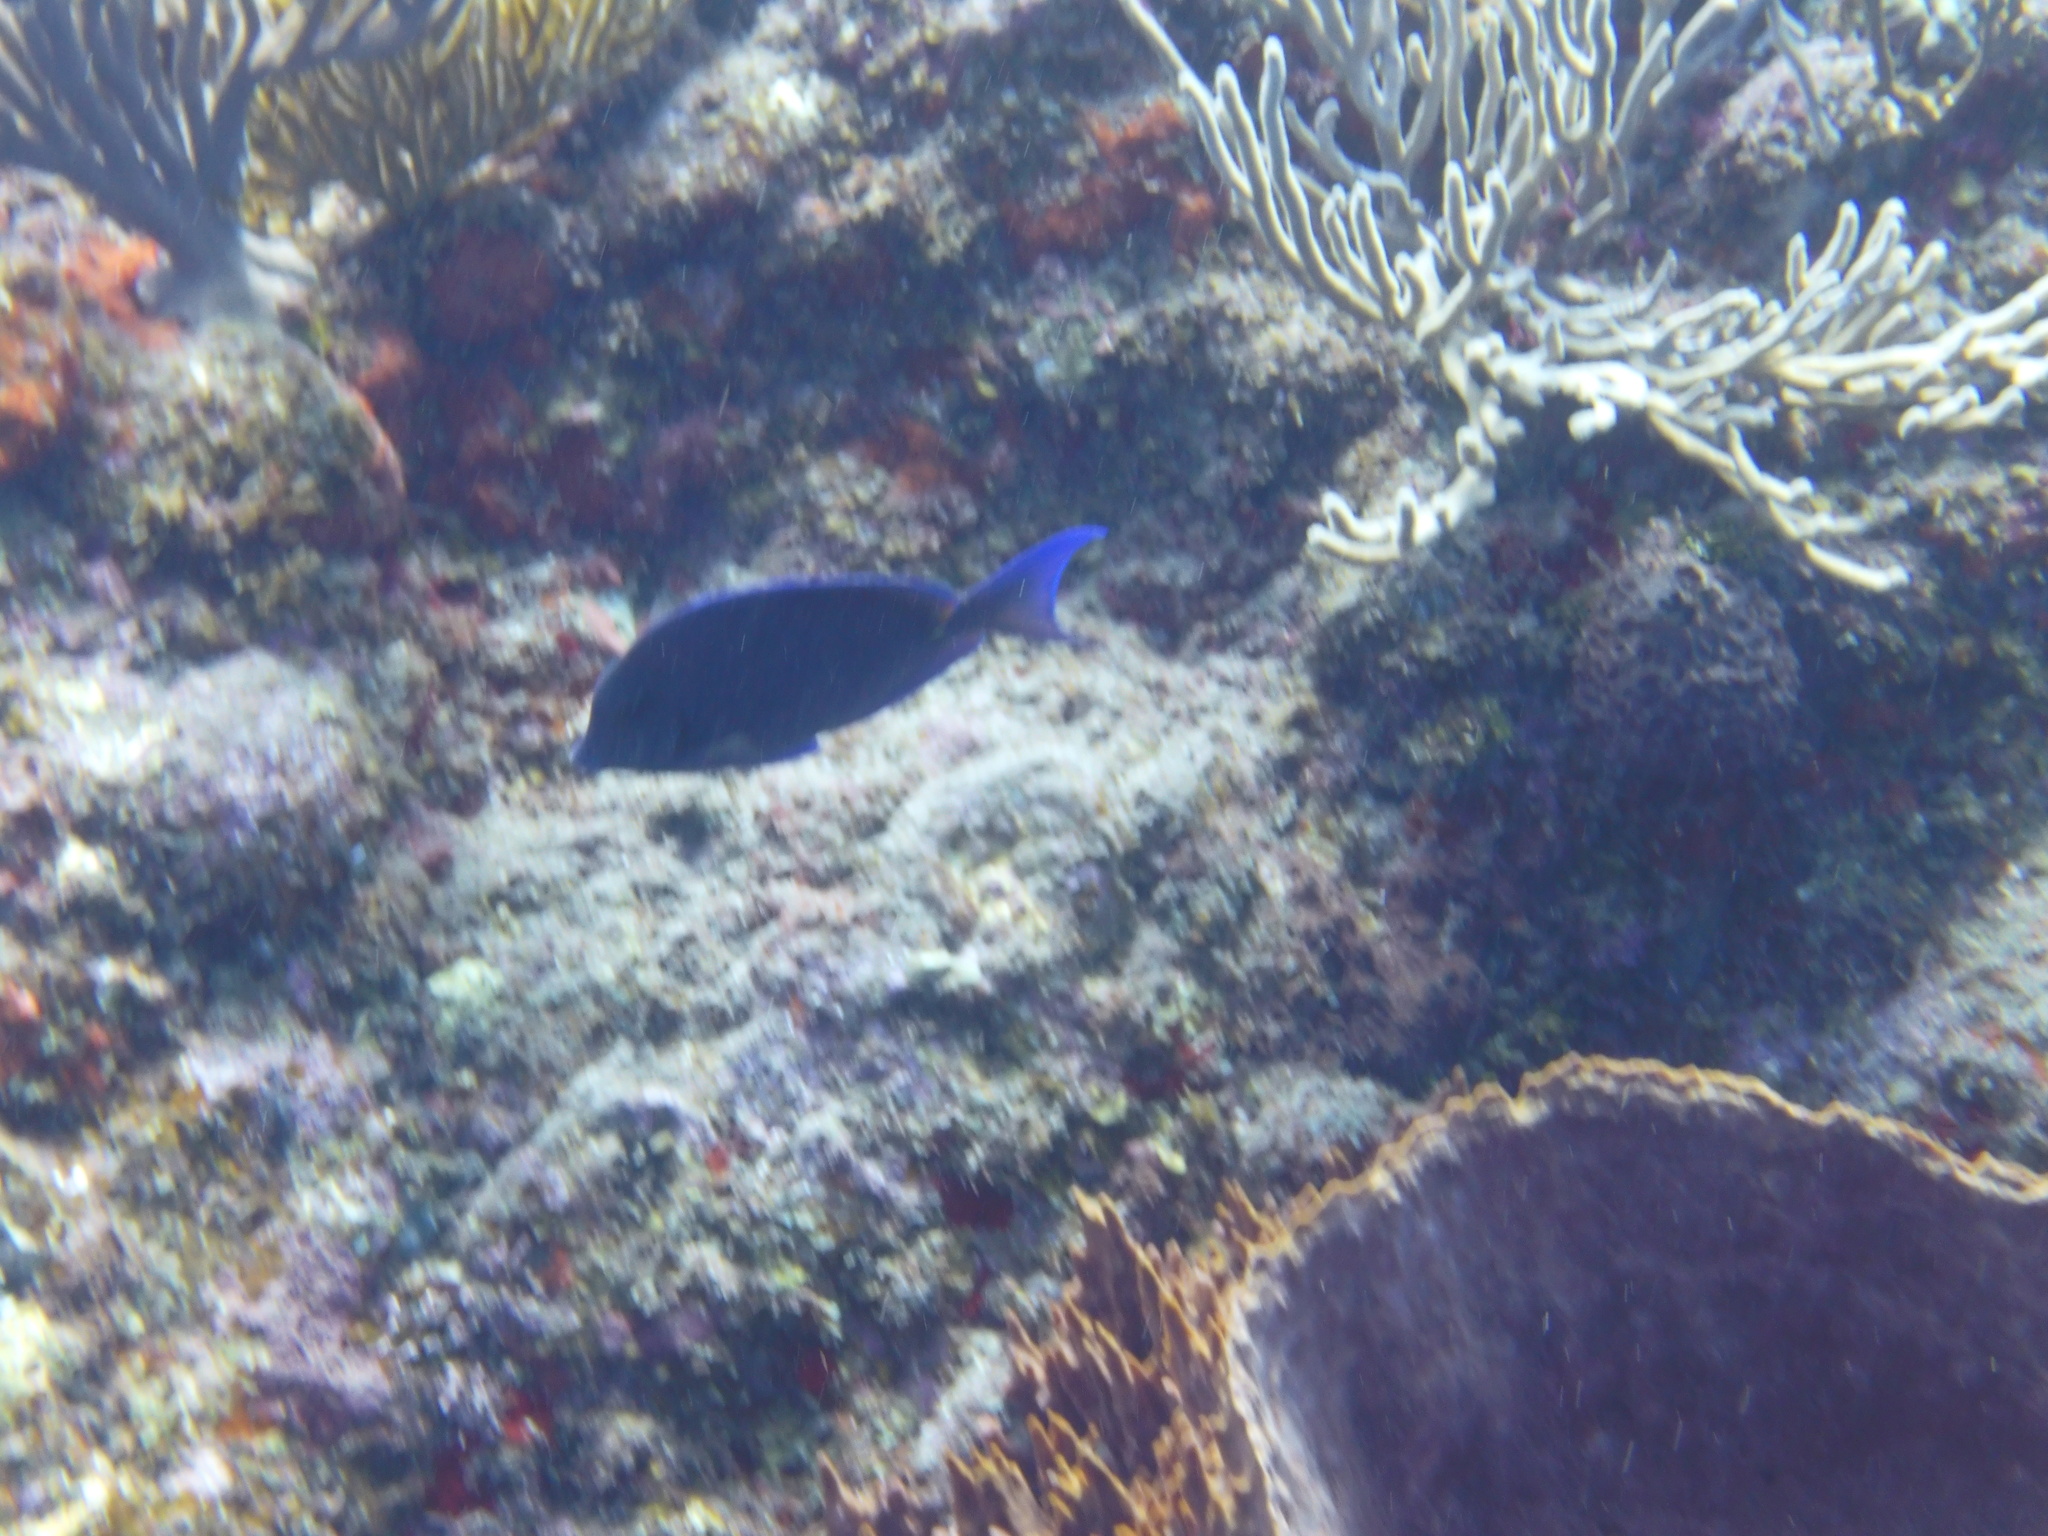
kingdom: Animalia
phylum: Chordata
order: Perciformes
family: Acanthuridae
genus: Acanthurus
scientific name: Acanthurus coeruleus
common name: Blue tang
